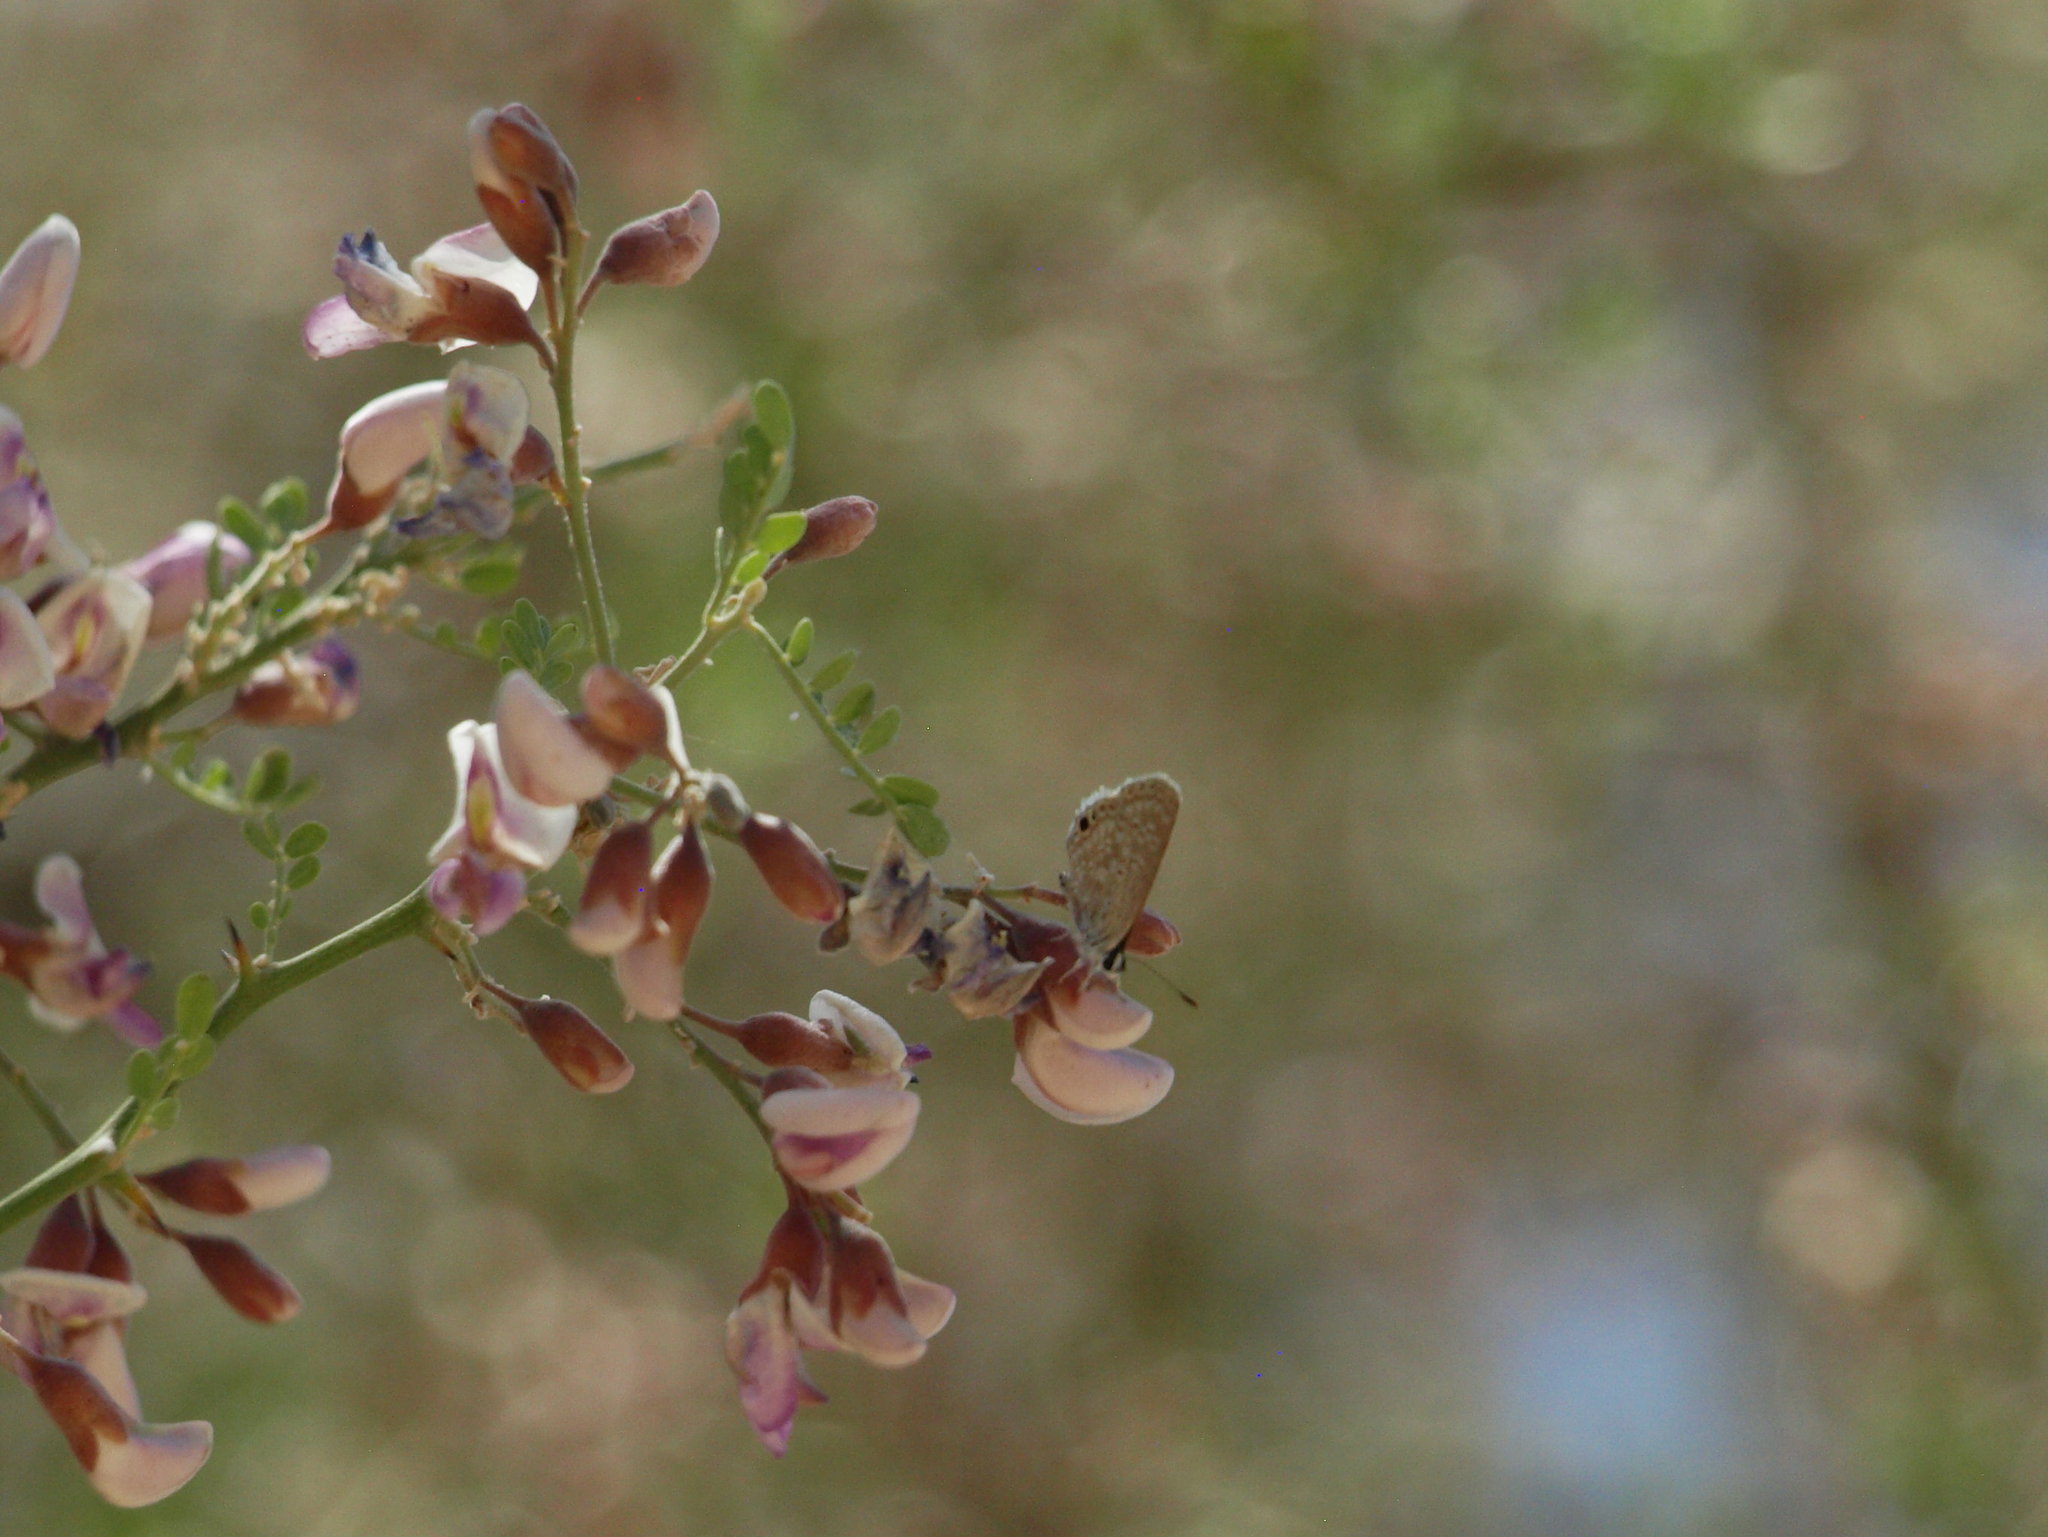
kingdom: Animalia
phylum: Arthropoda
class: Insecta
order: Lepidoptera
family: Lycaenidae
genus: Echinargus
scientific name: Echinargus isola
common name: Reakirt's blue
